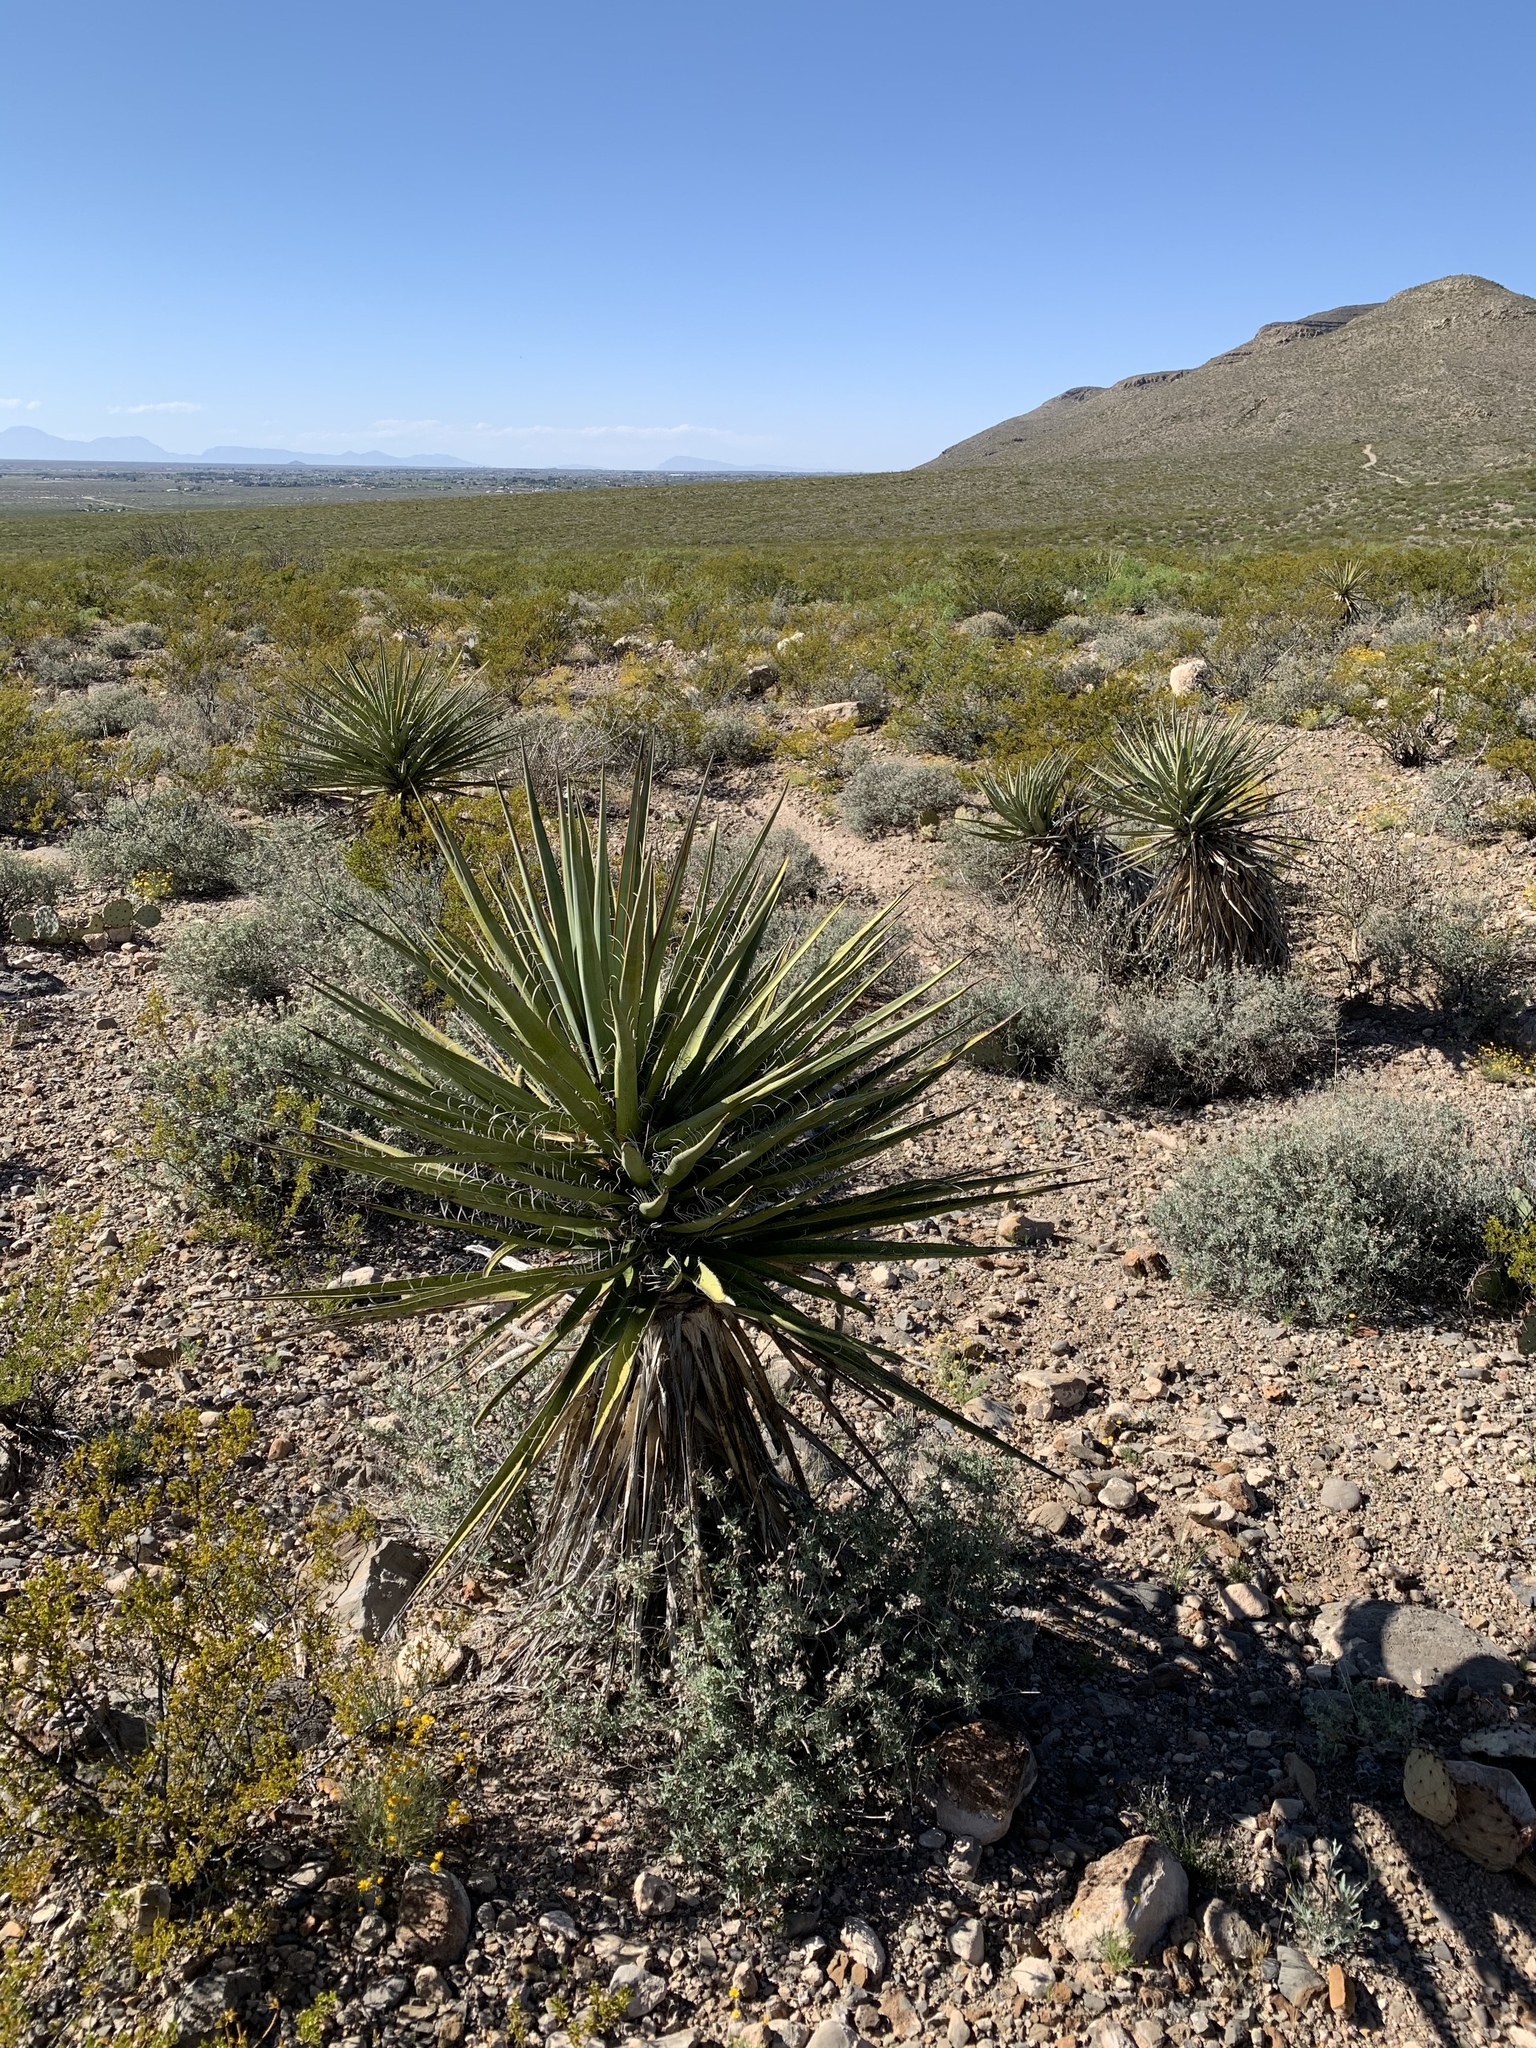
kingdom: Plantae
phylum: Tracheophyta
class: Liliopsida
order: Asparagales
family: Asparagaceae
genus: Yucca
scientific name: Yucca treculiana
